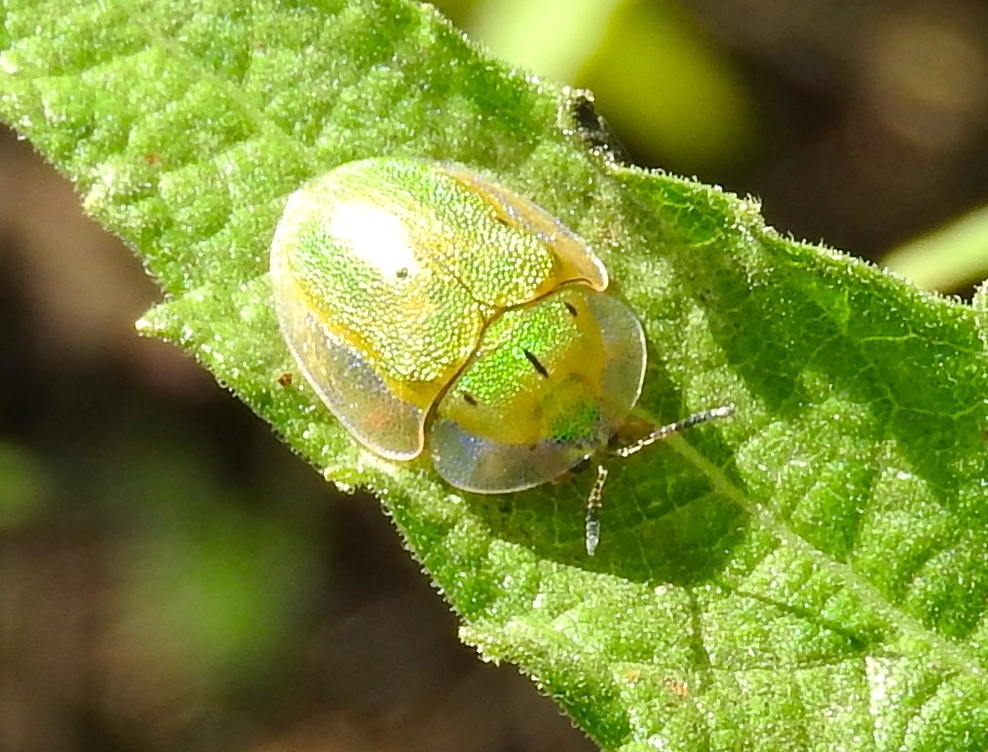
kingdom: Animalia
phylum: Arthropoda
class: Insecta
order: Coleoptera
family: Chrysomelidae
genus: Physonota
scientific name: Physonota arizonae
